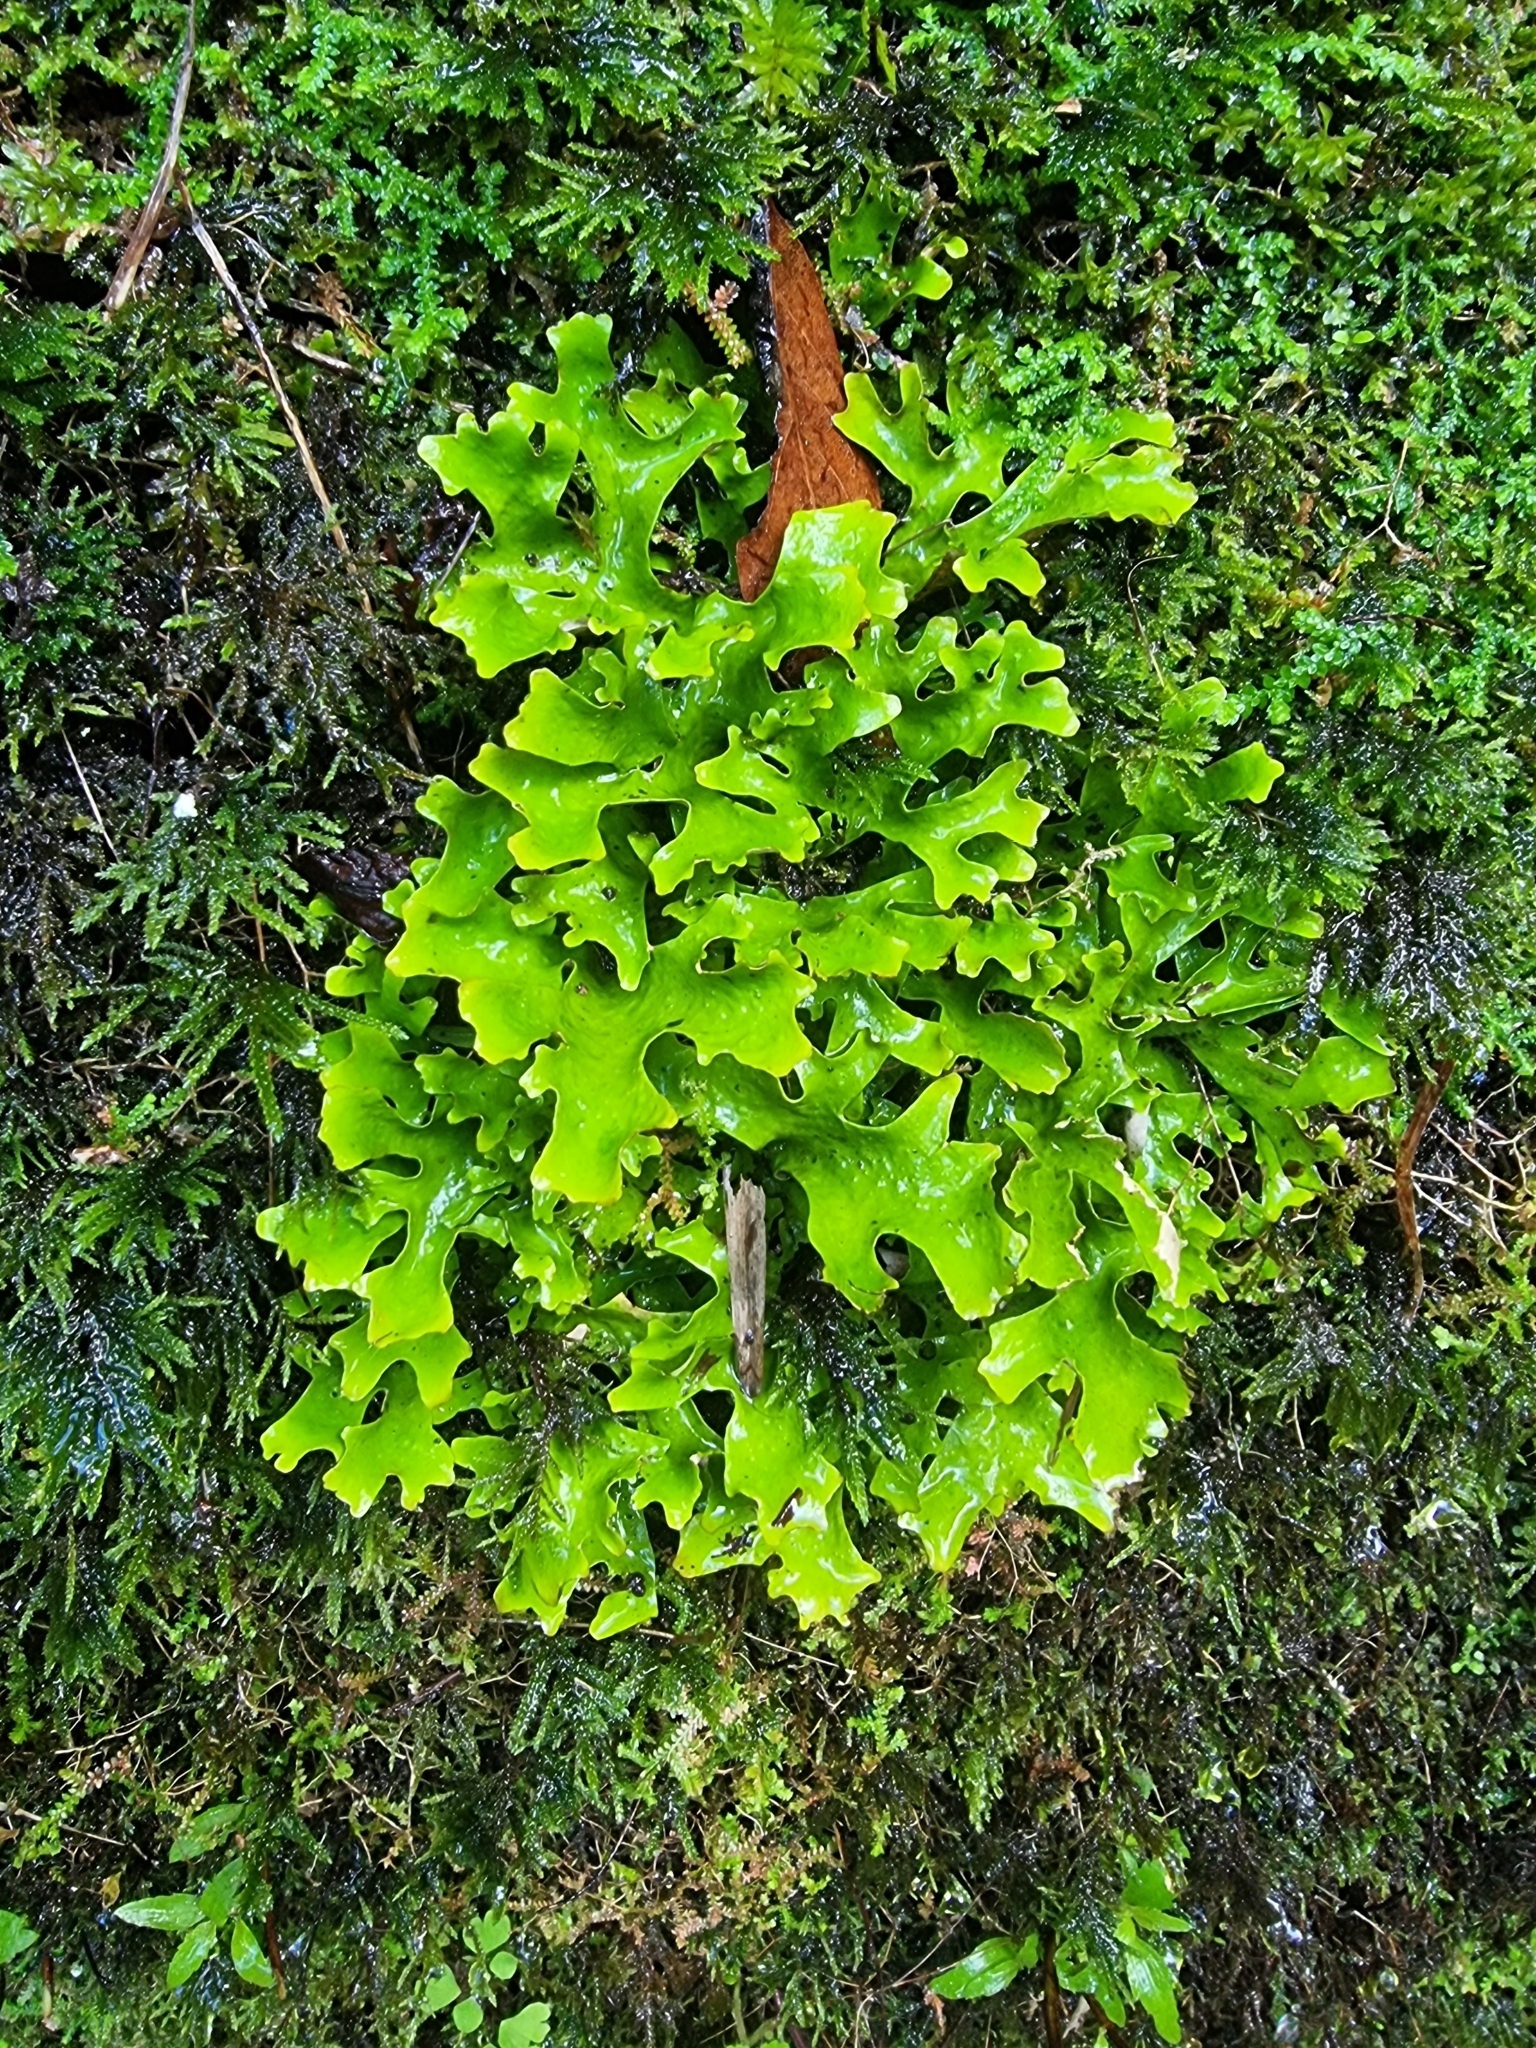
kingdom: Fungi
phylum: Ascomycota
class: Lecanoromycetes
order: Peltigerales
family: Lobariaceae
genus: Sticta
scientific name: Sticta canariensis
